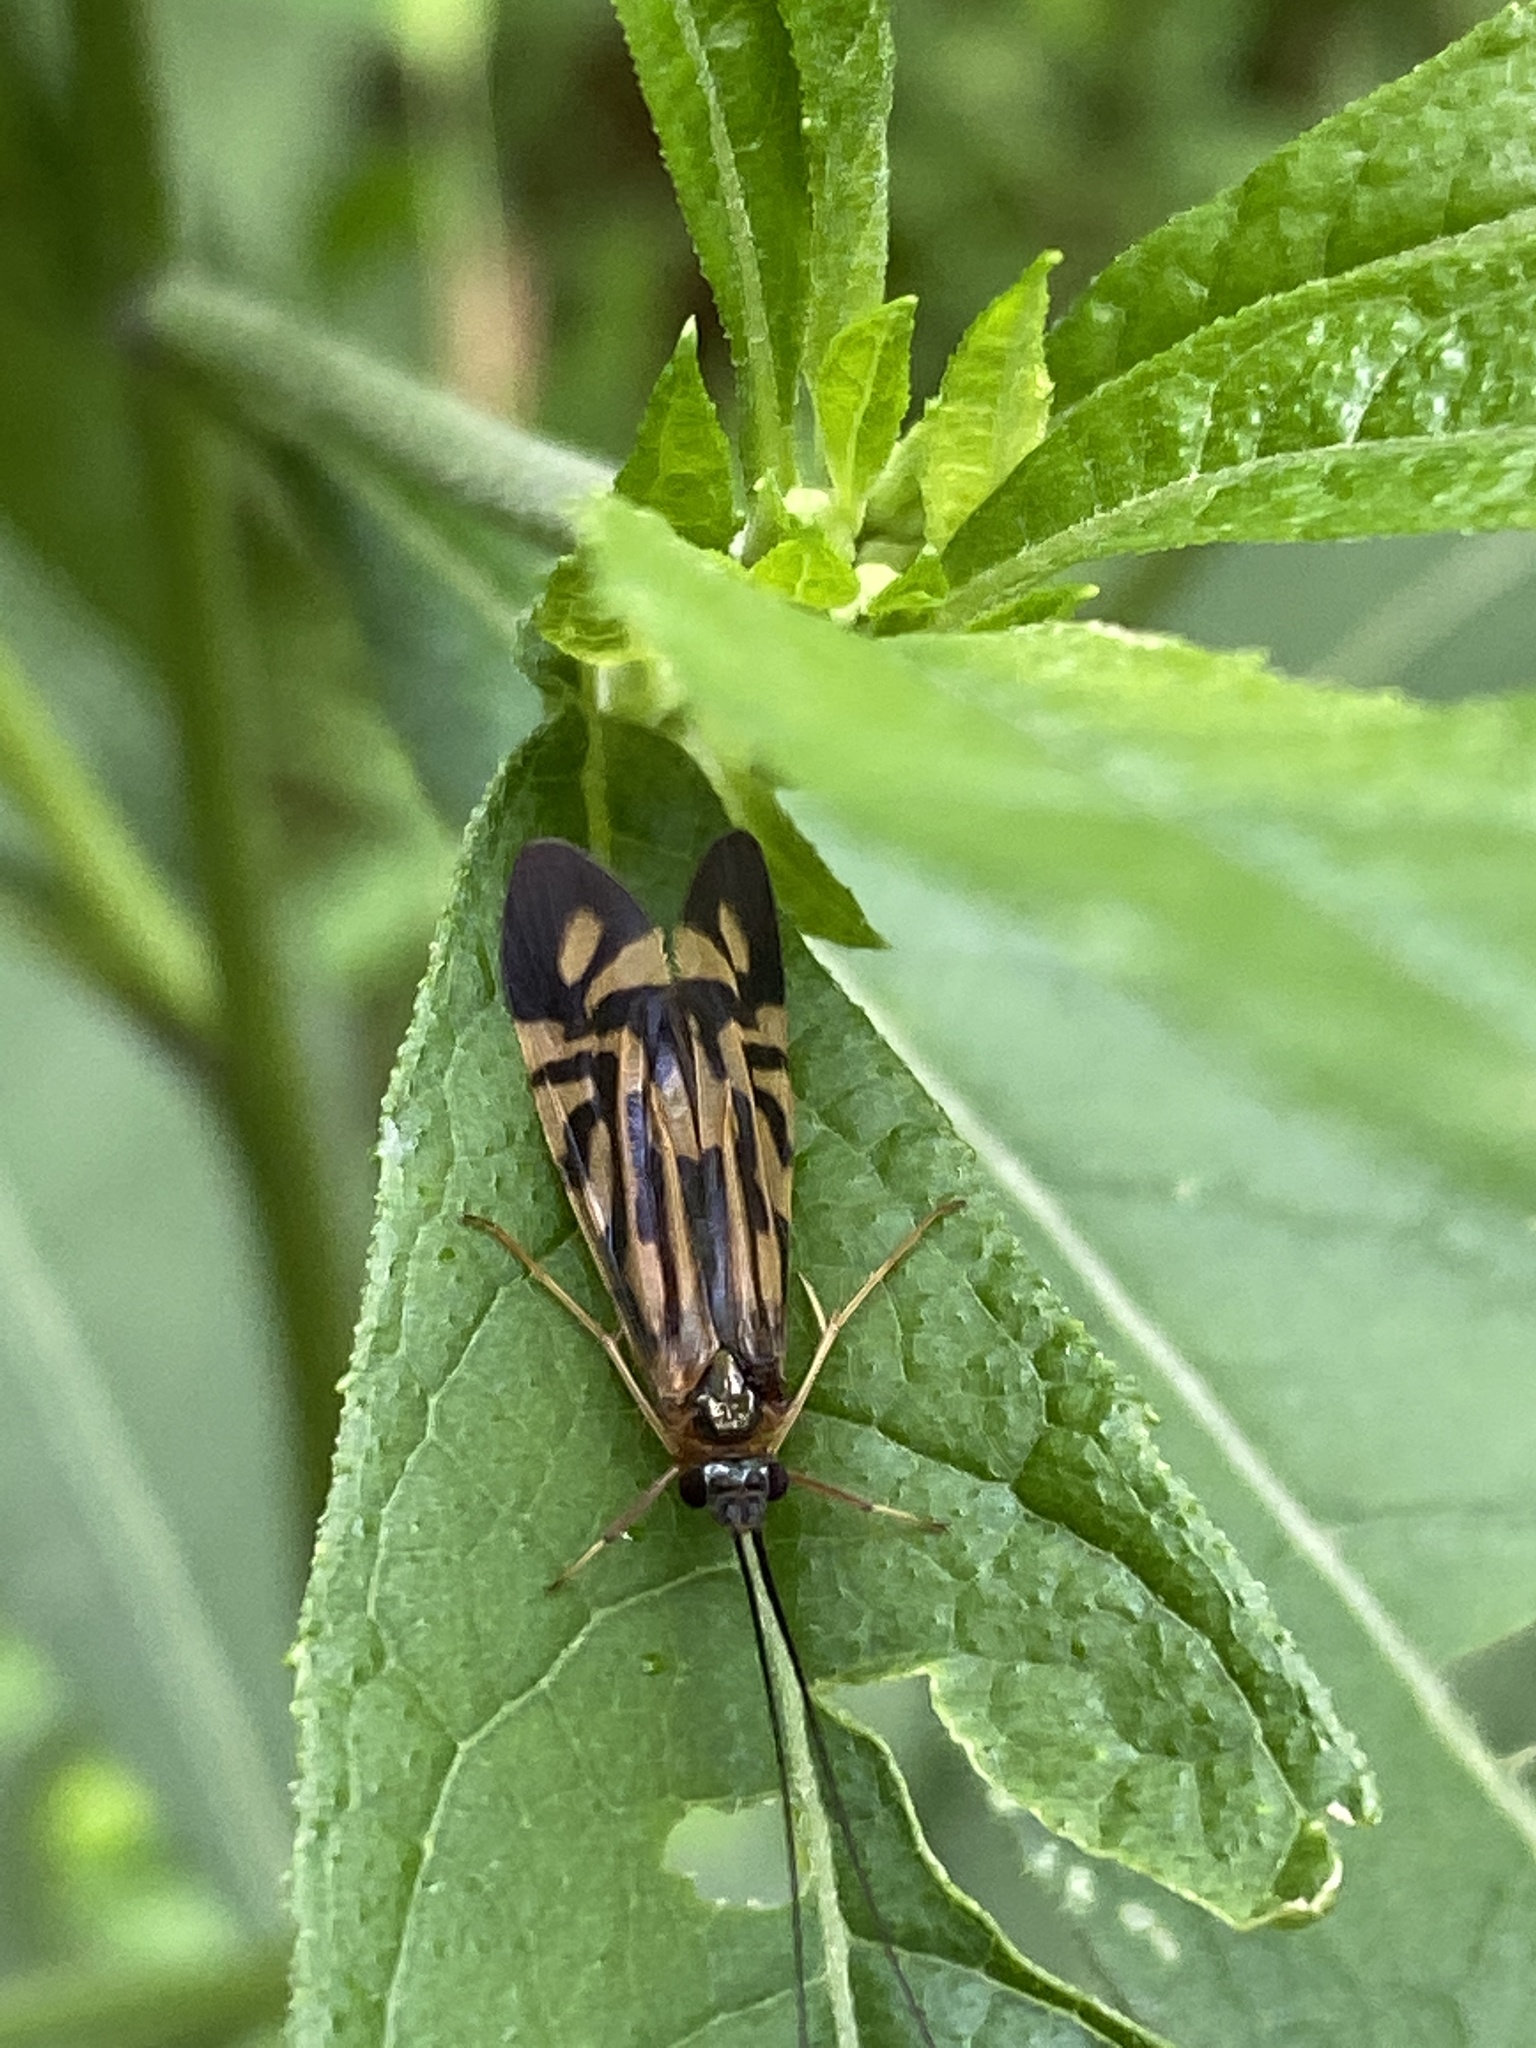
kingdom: Animalia
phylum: Arthropoda
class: Insecta
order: Trichoptera
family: Hydropsychidae
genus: Macrostemum
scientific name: Macrostemum zebratum
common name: Zebra caddisfly
